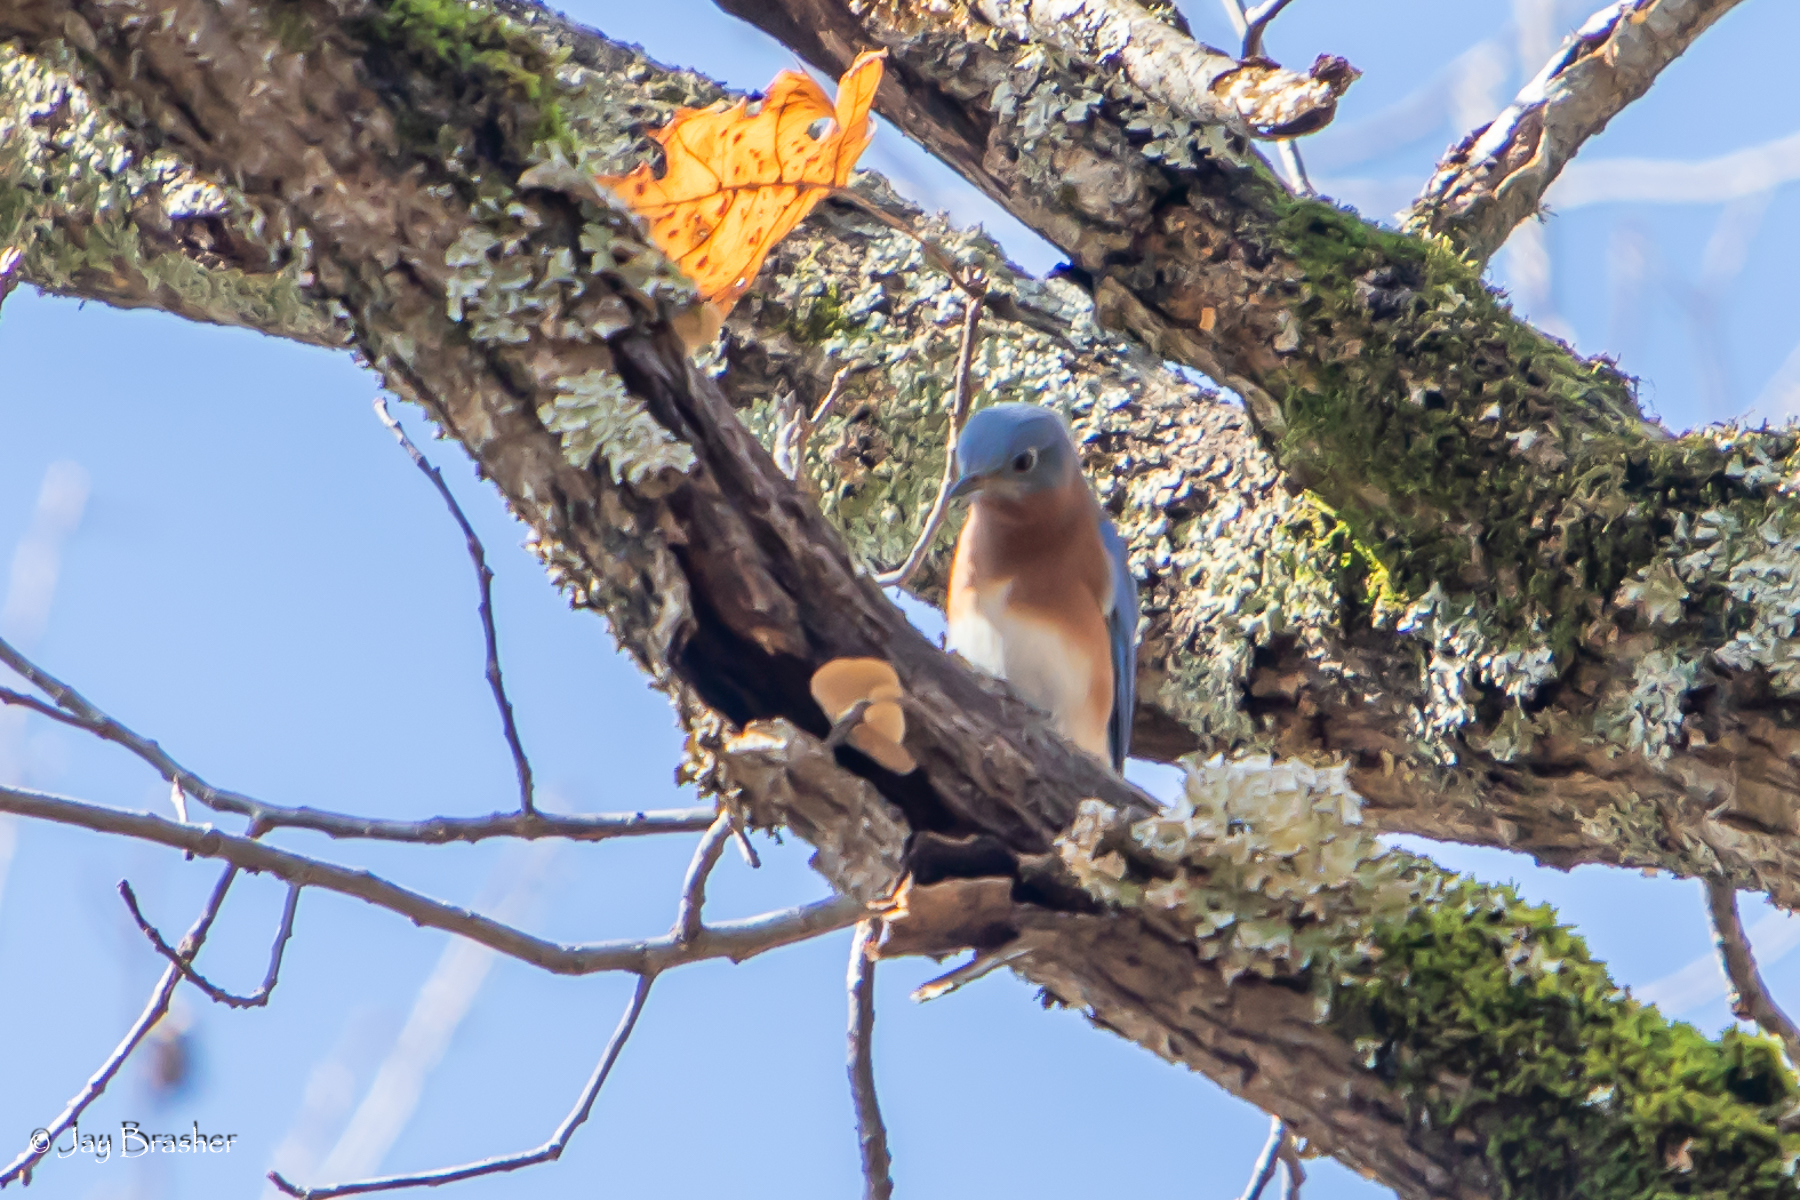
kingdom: Animalia
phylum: Chordata
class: Aves
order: Passeriformes
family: Turdidae
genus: Sialia
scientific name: Sialia sialis
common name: Eastern bluebird
